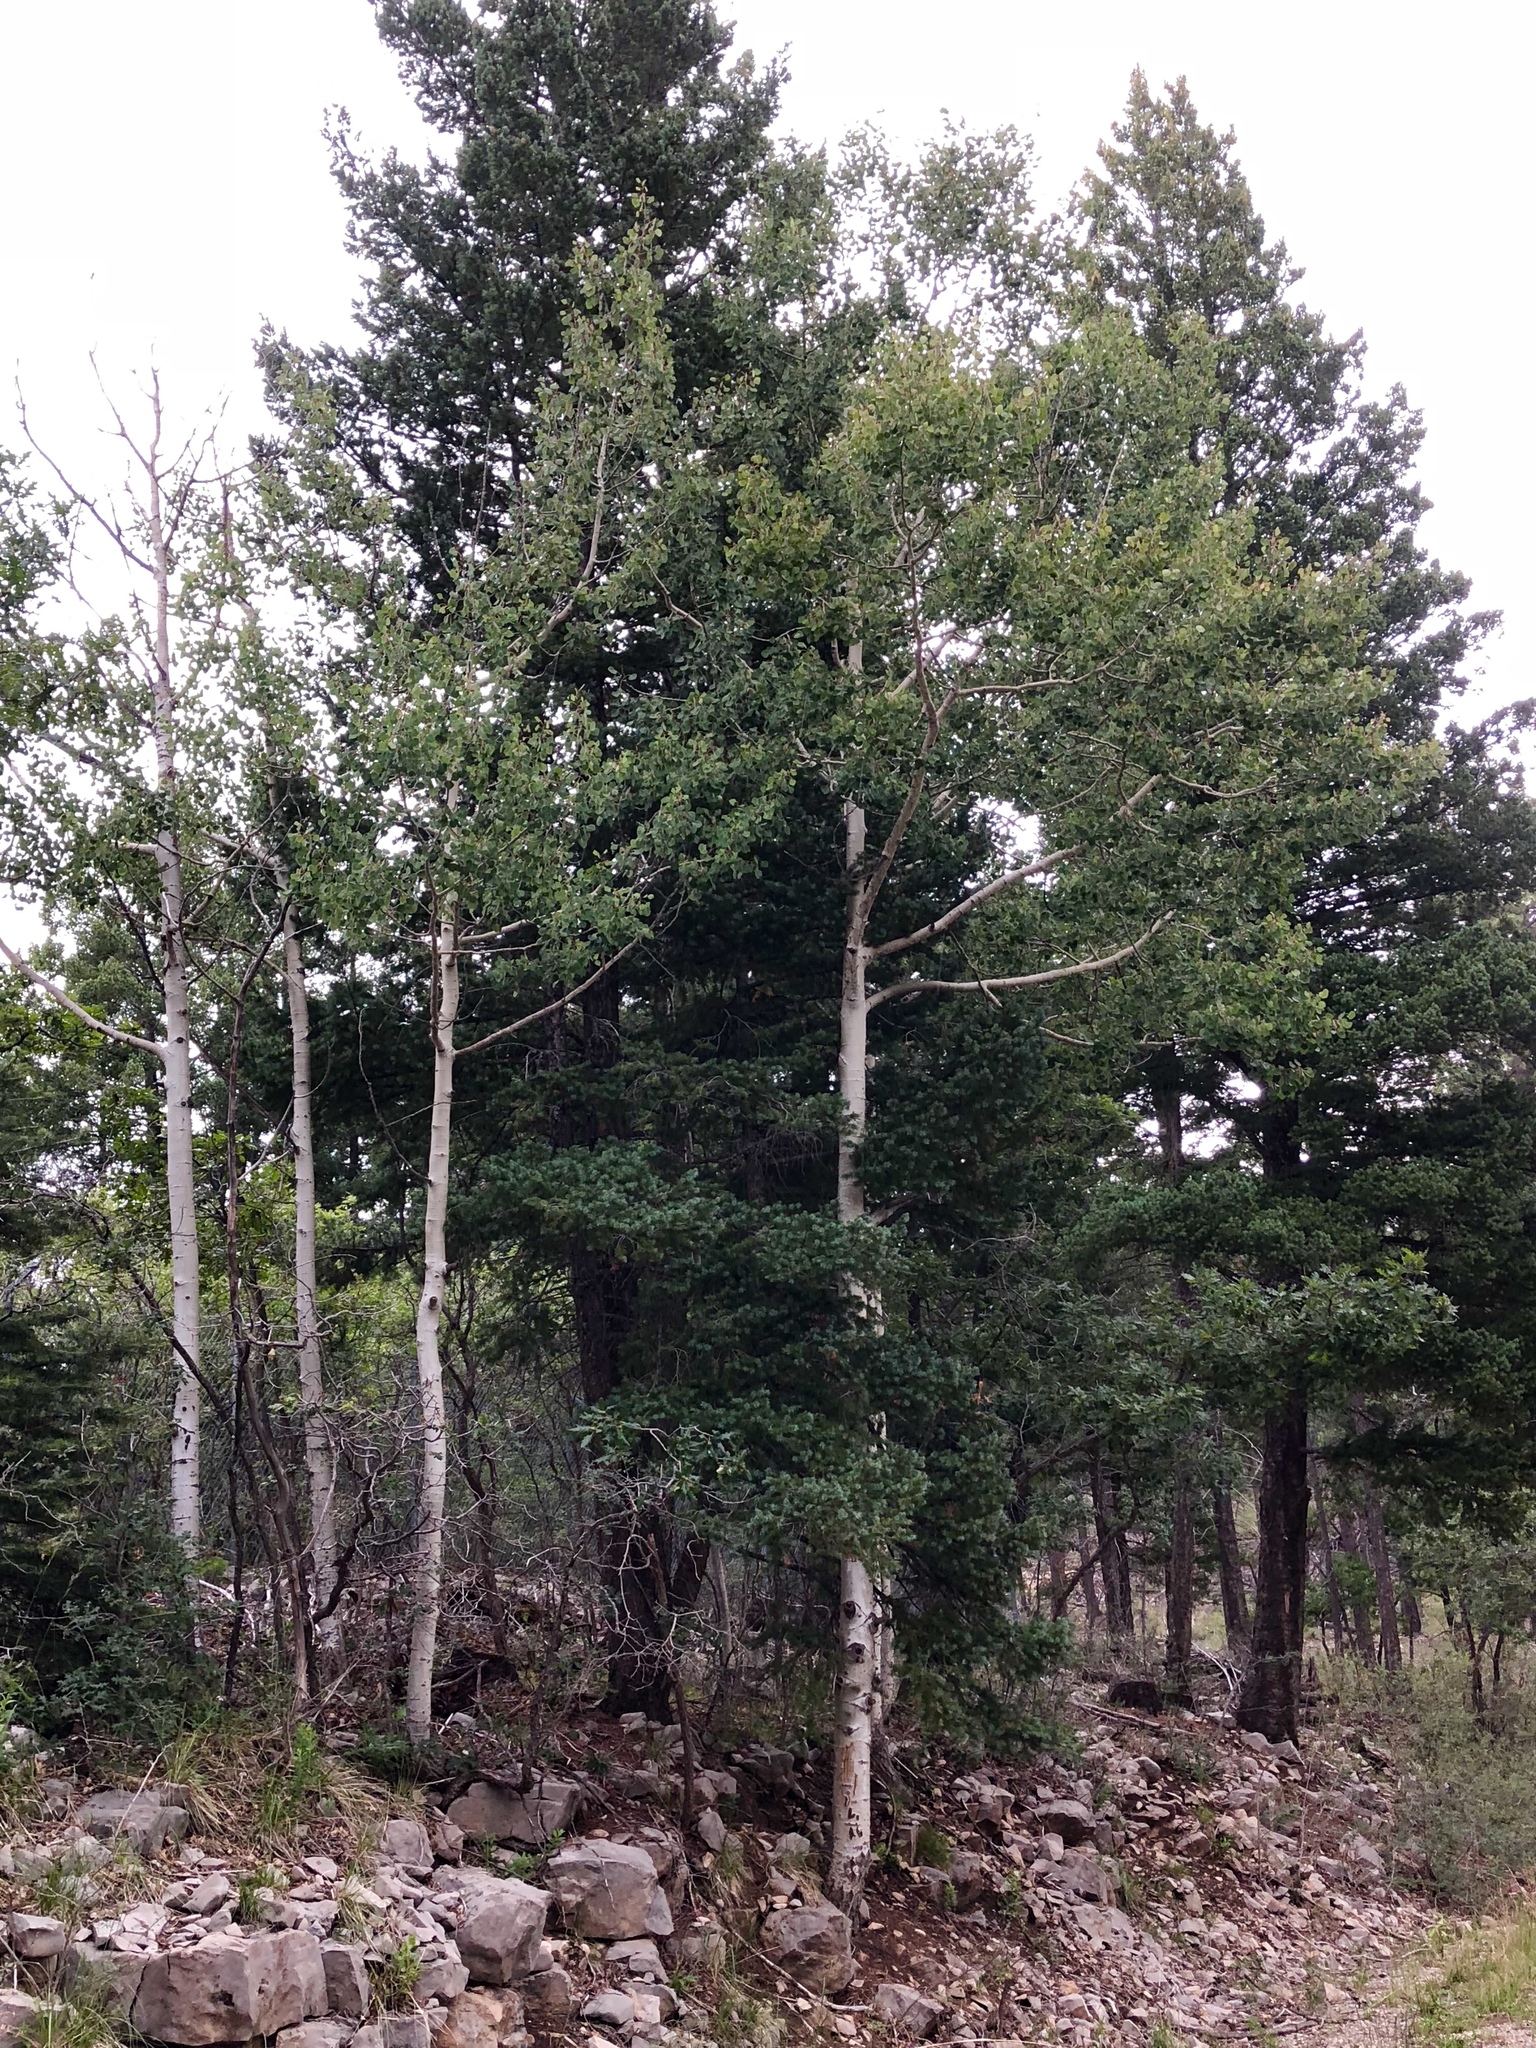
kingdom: Plantae
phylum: Tracheophyta
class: Magnoliopsida
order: Malpighiales
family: Salicaceae
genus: Populus
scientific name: Populus tremuloides
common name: Quaking aspen
